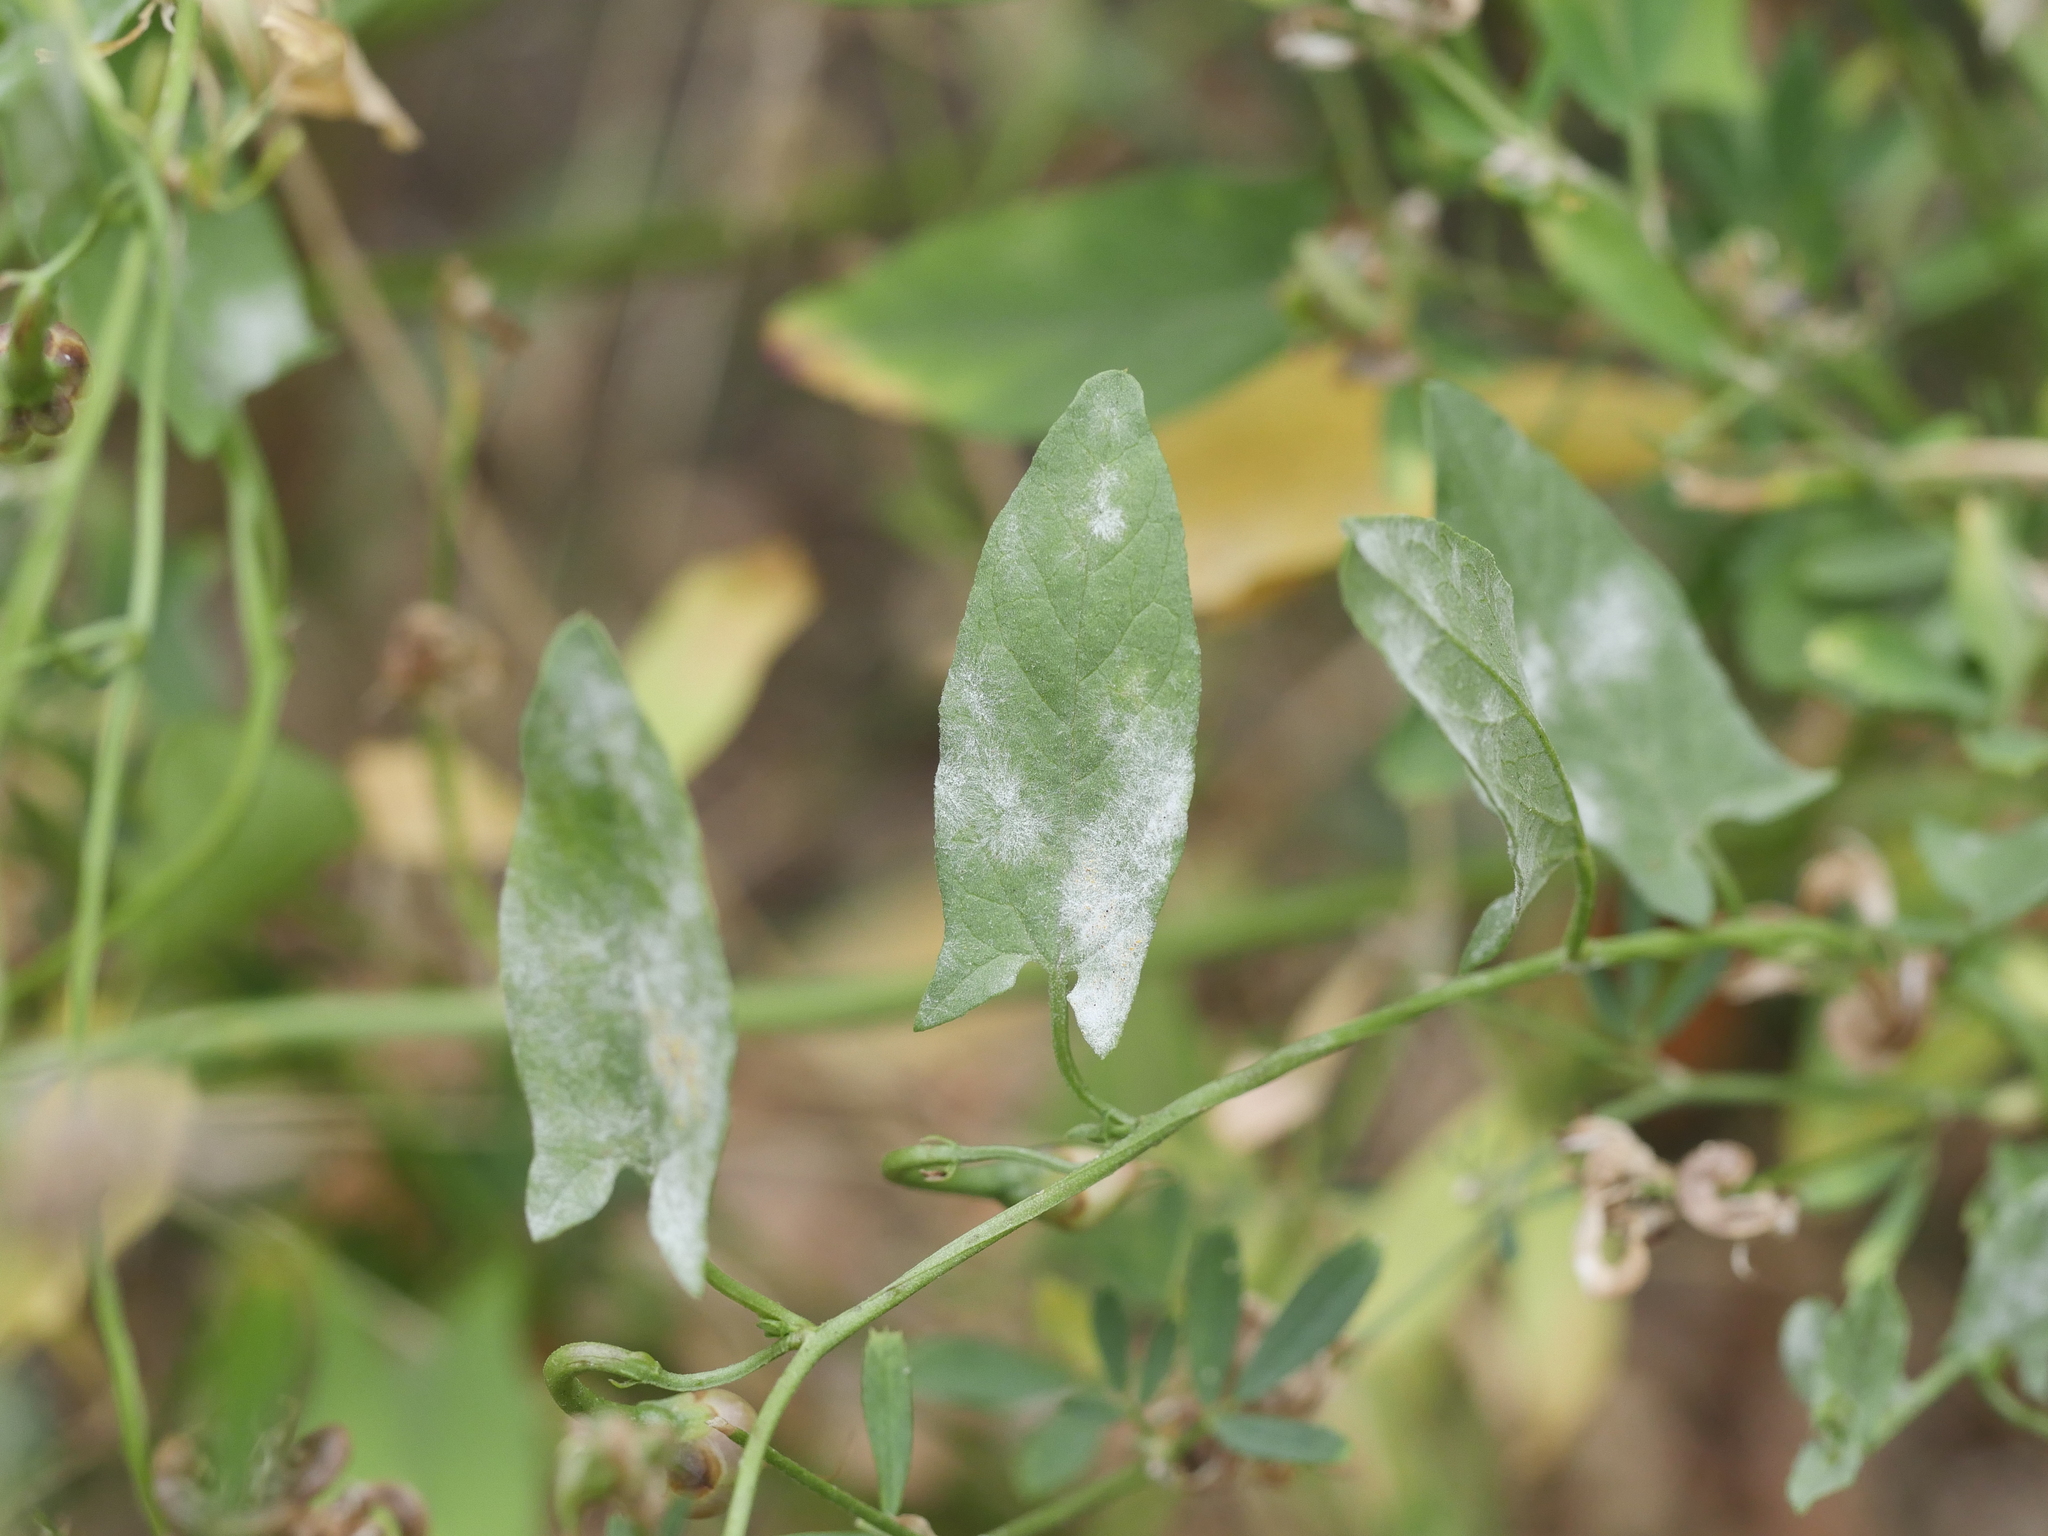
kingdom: Fungi
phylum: Ascomycota
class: Leotiomycetes
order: Helotiales
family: Erysiphaceae
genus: Erysiphe
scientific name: Erysiphe convolvuli
